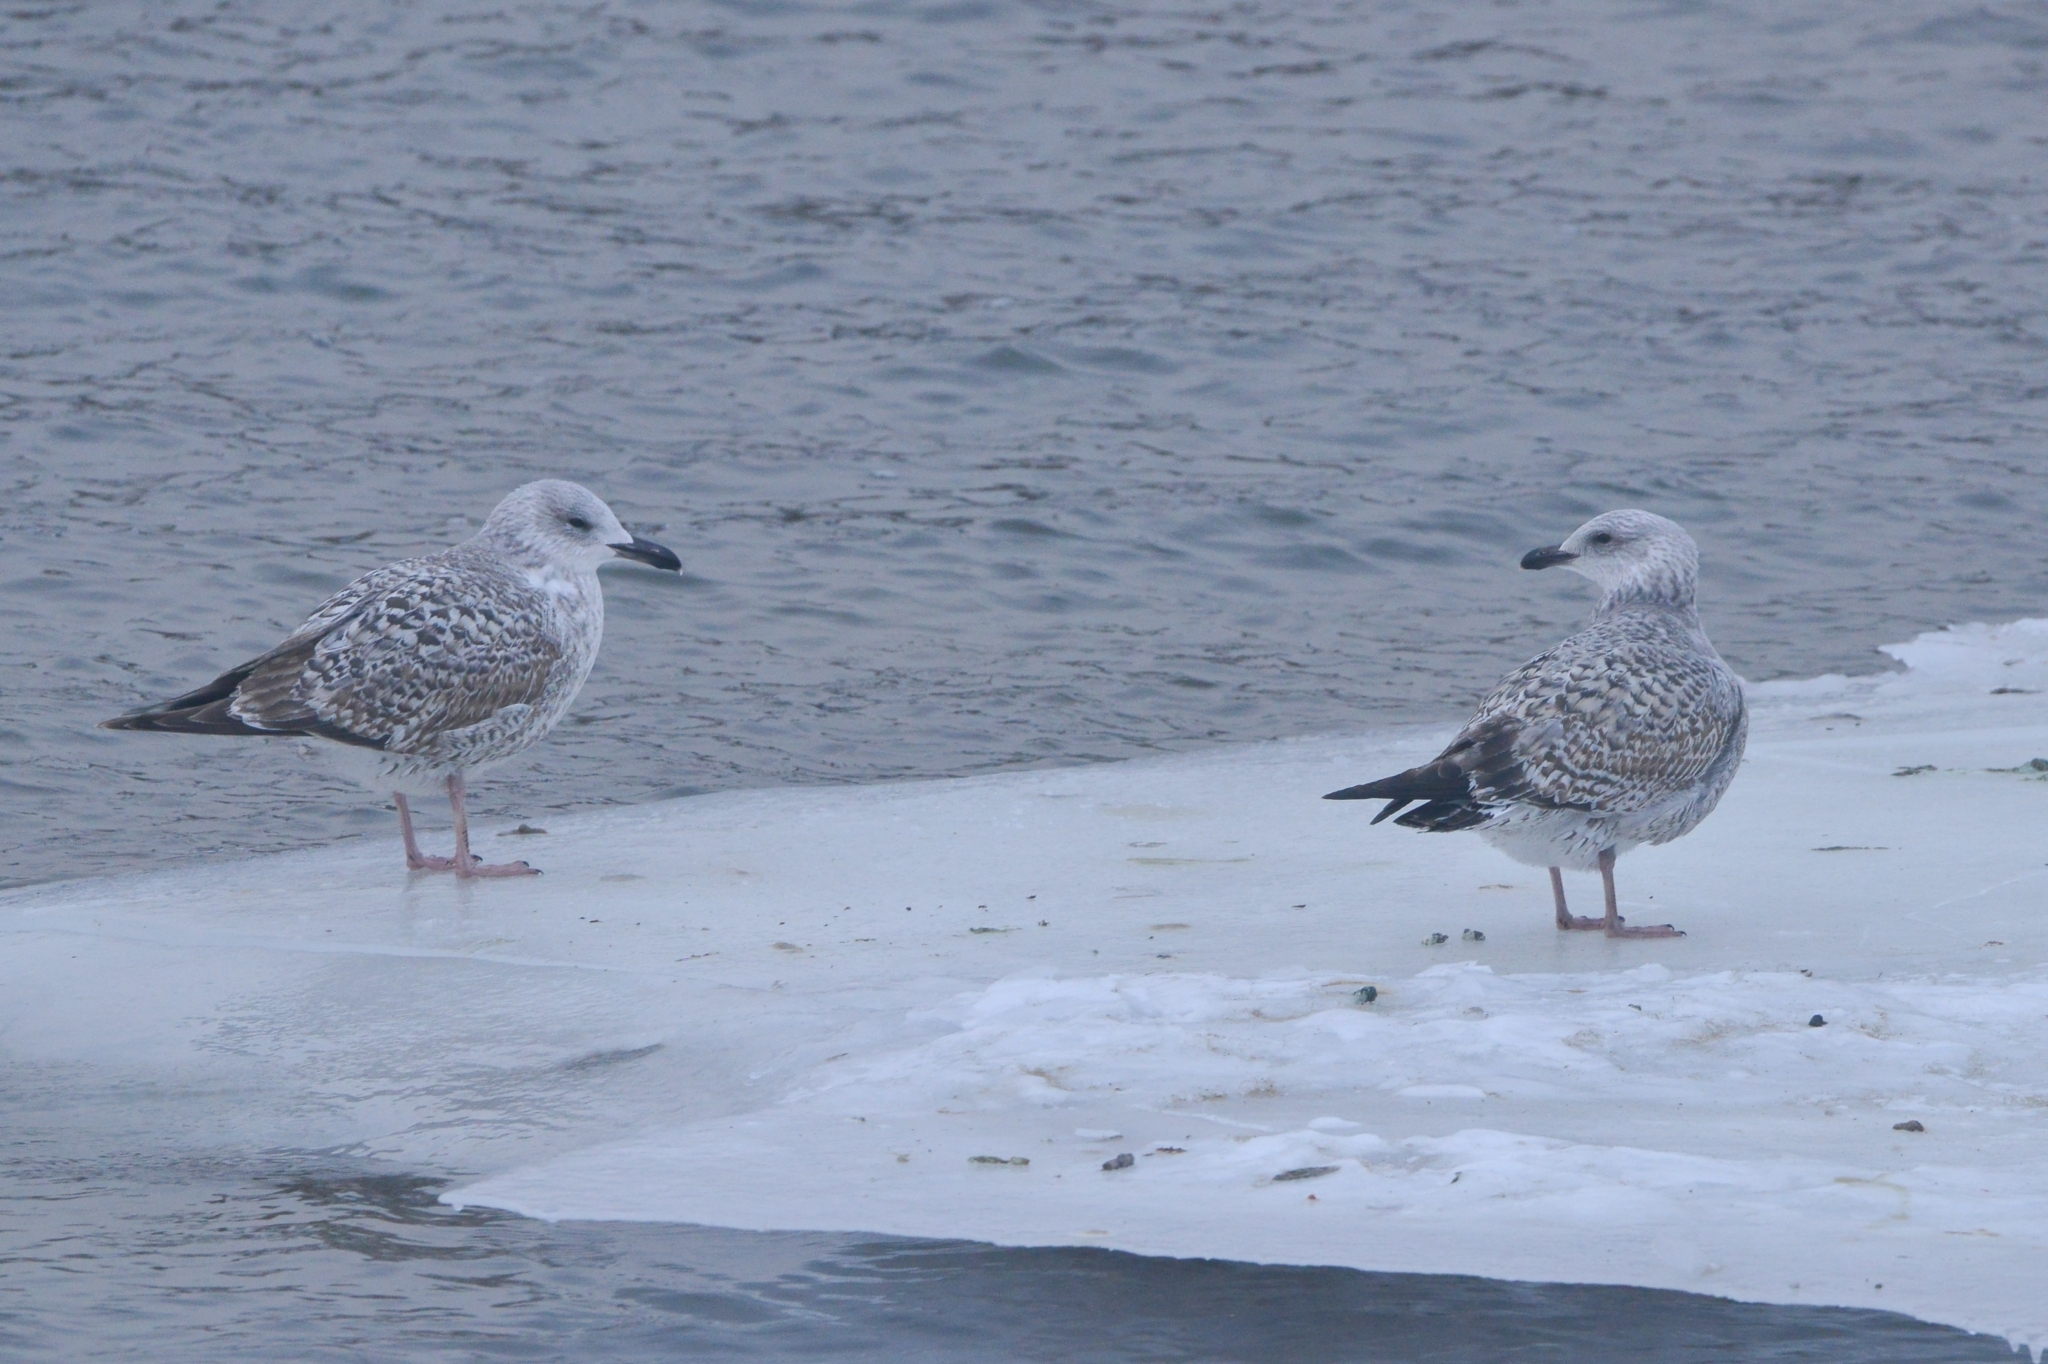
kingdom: Animalia
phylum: Chordata
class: Aves
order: Charadriiformes
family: Laridae
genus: Larus
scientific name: Larus argentatus
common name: Herring gull
